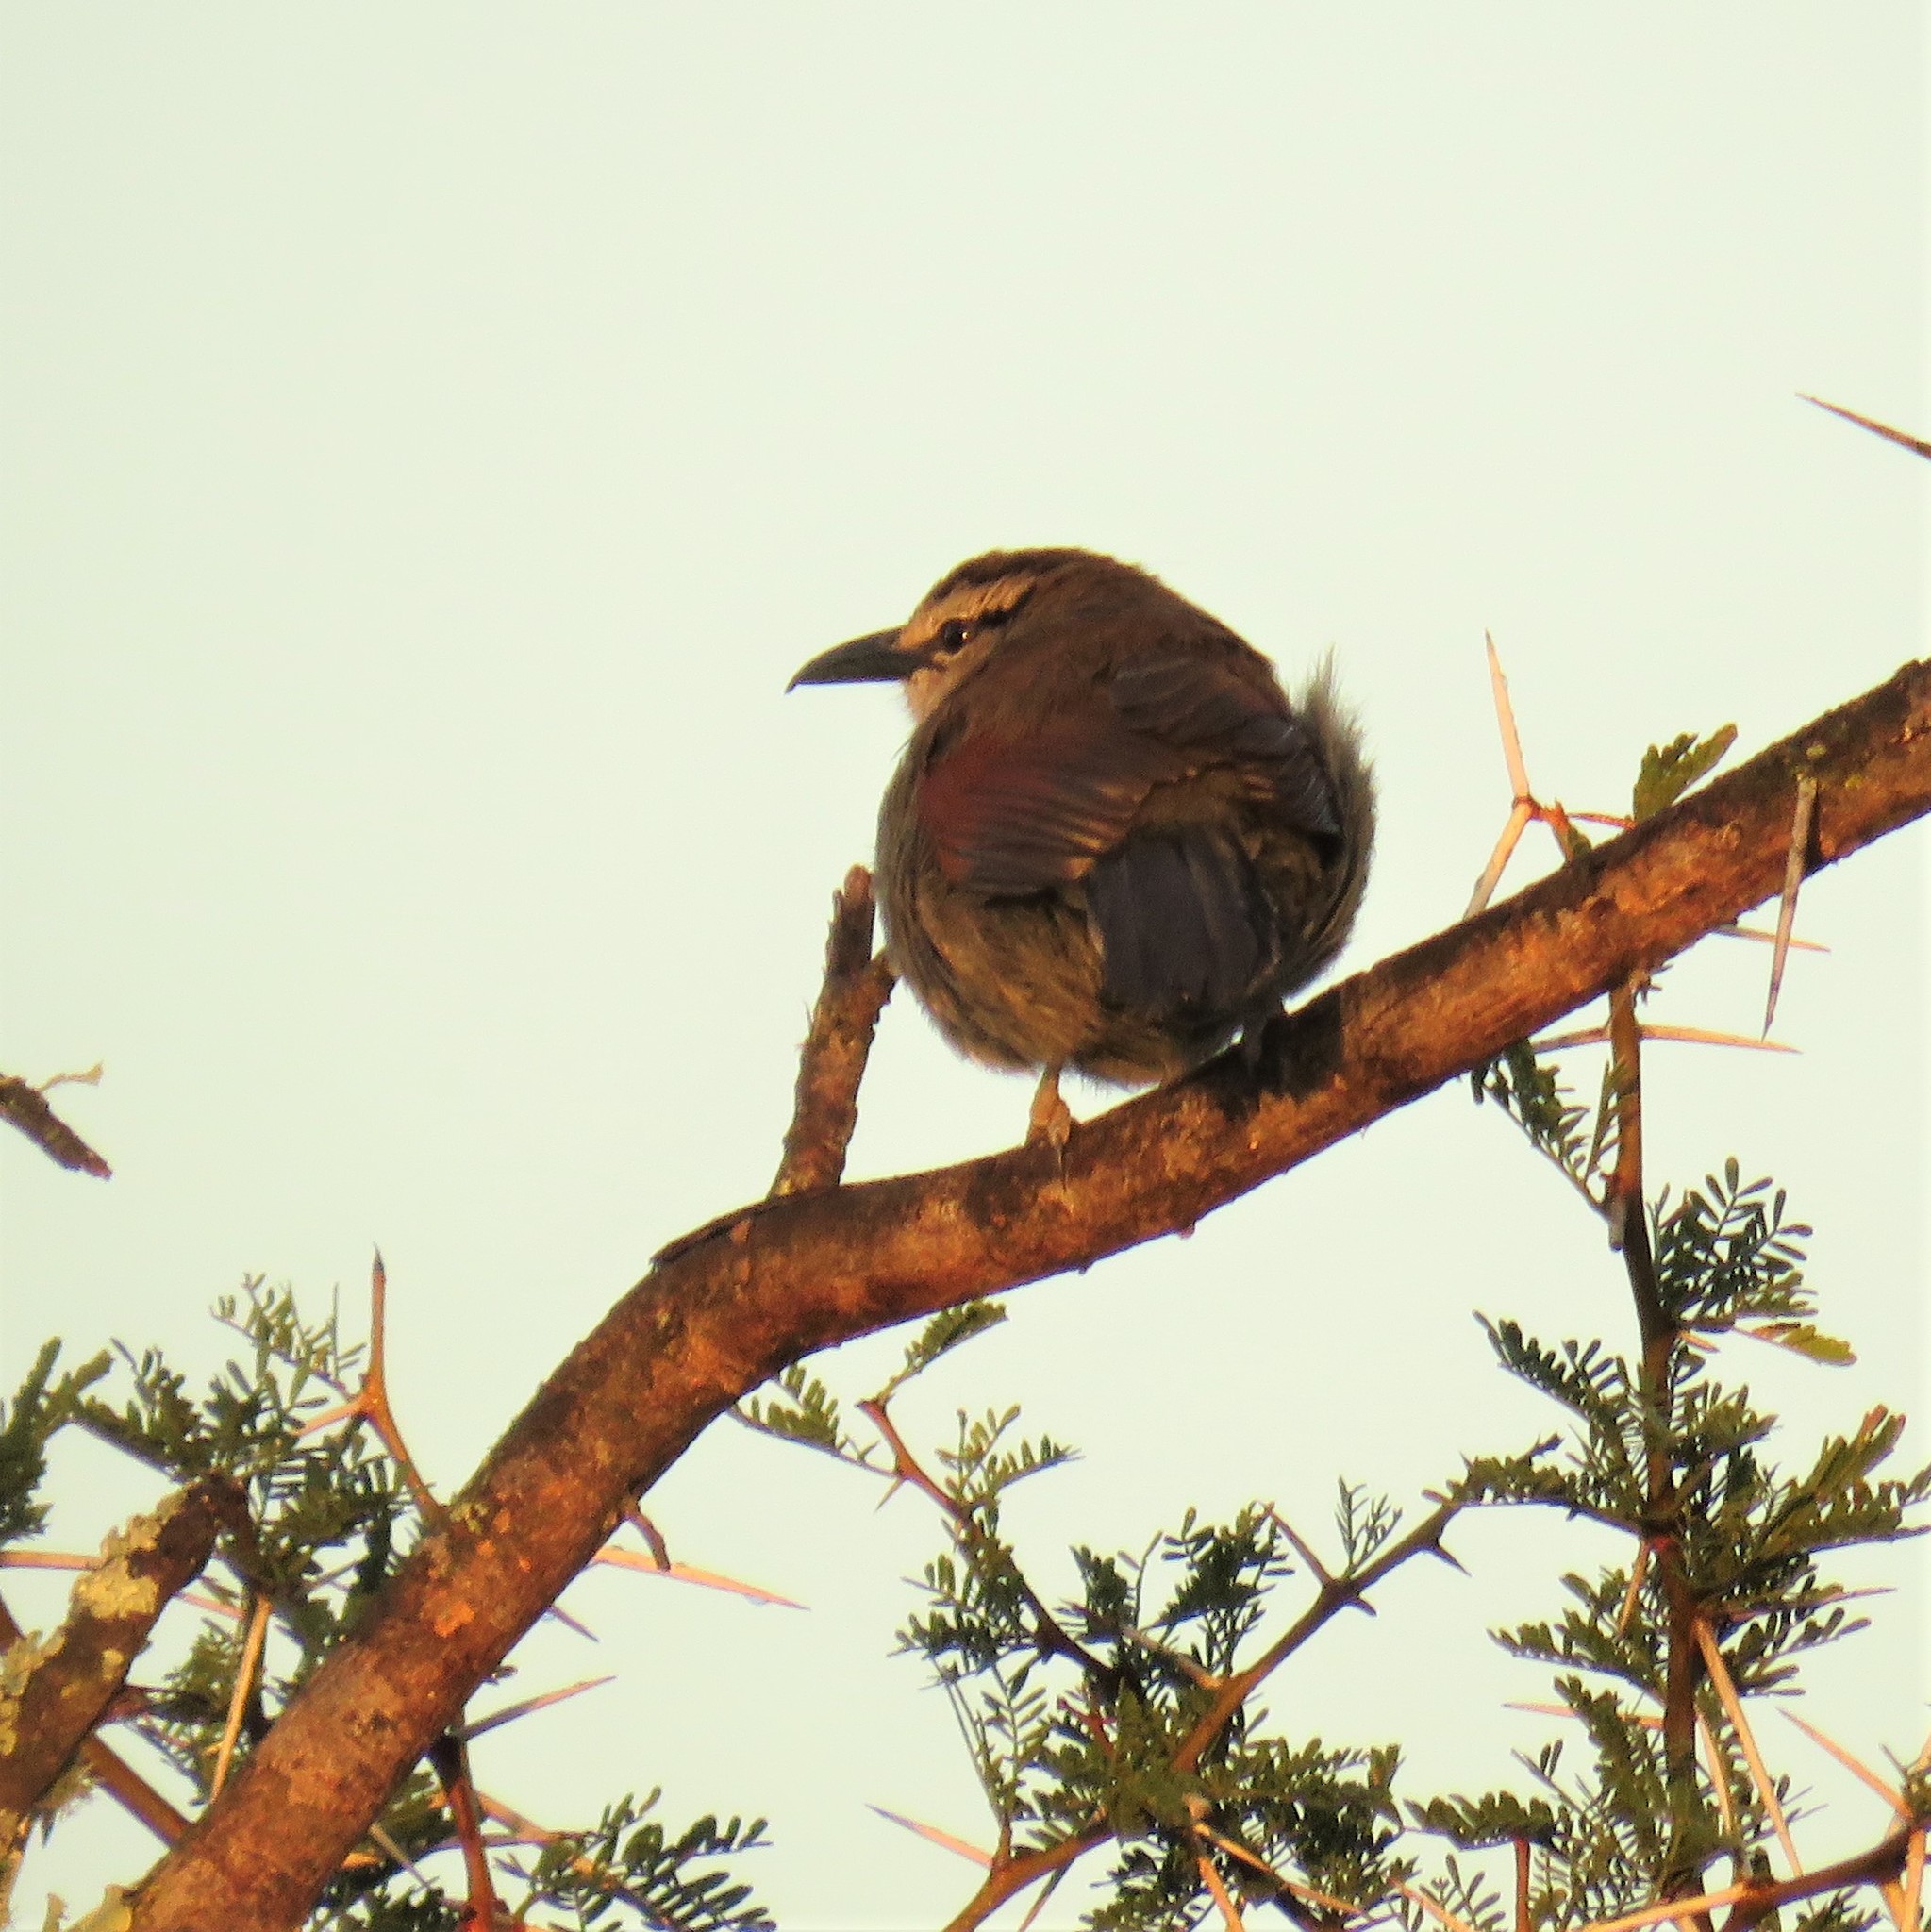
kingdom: Animalia
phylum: Chordata
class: Aves
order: Passeriformes
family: Malaconotidae
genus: Tchagra
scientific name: Tchagra tchagra
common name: Southern tchagra
